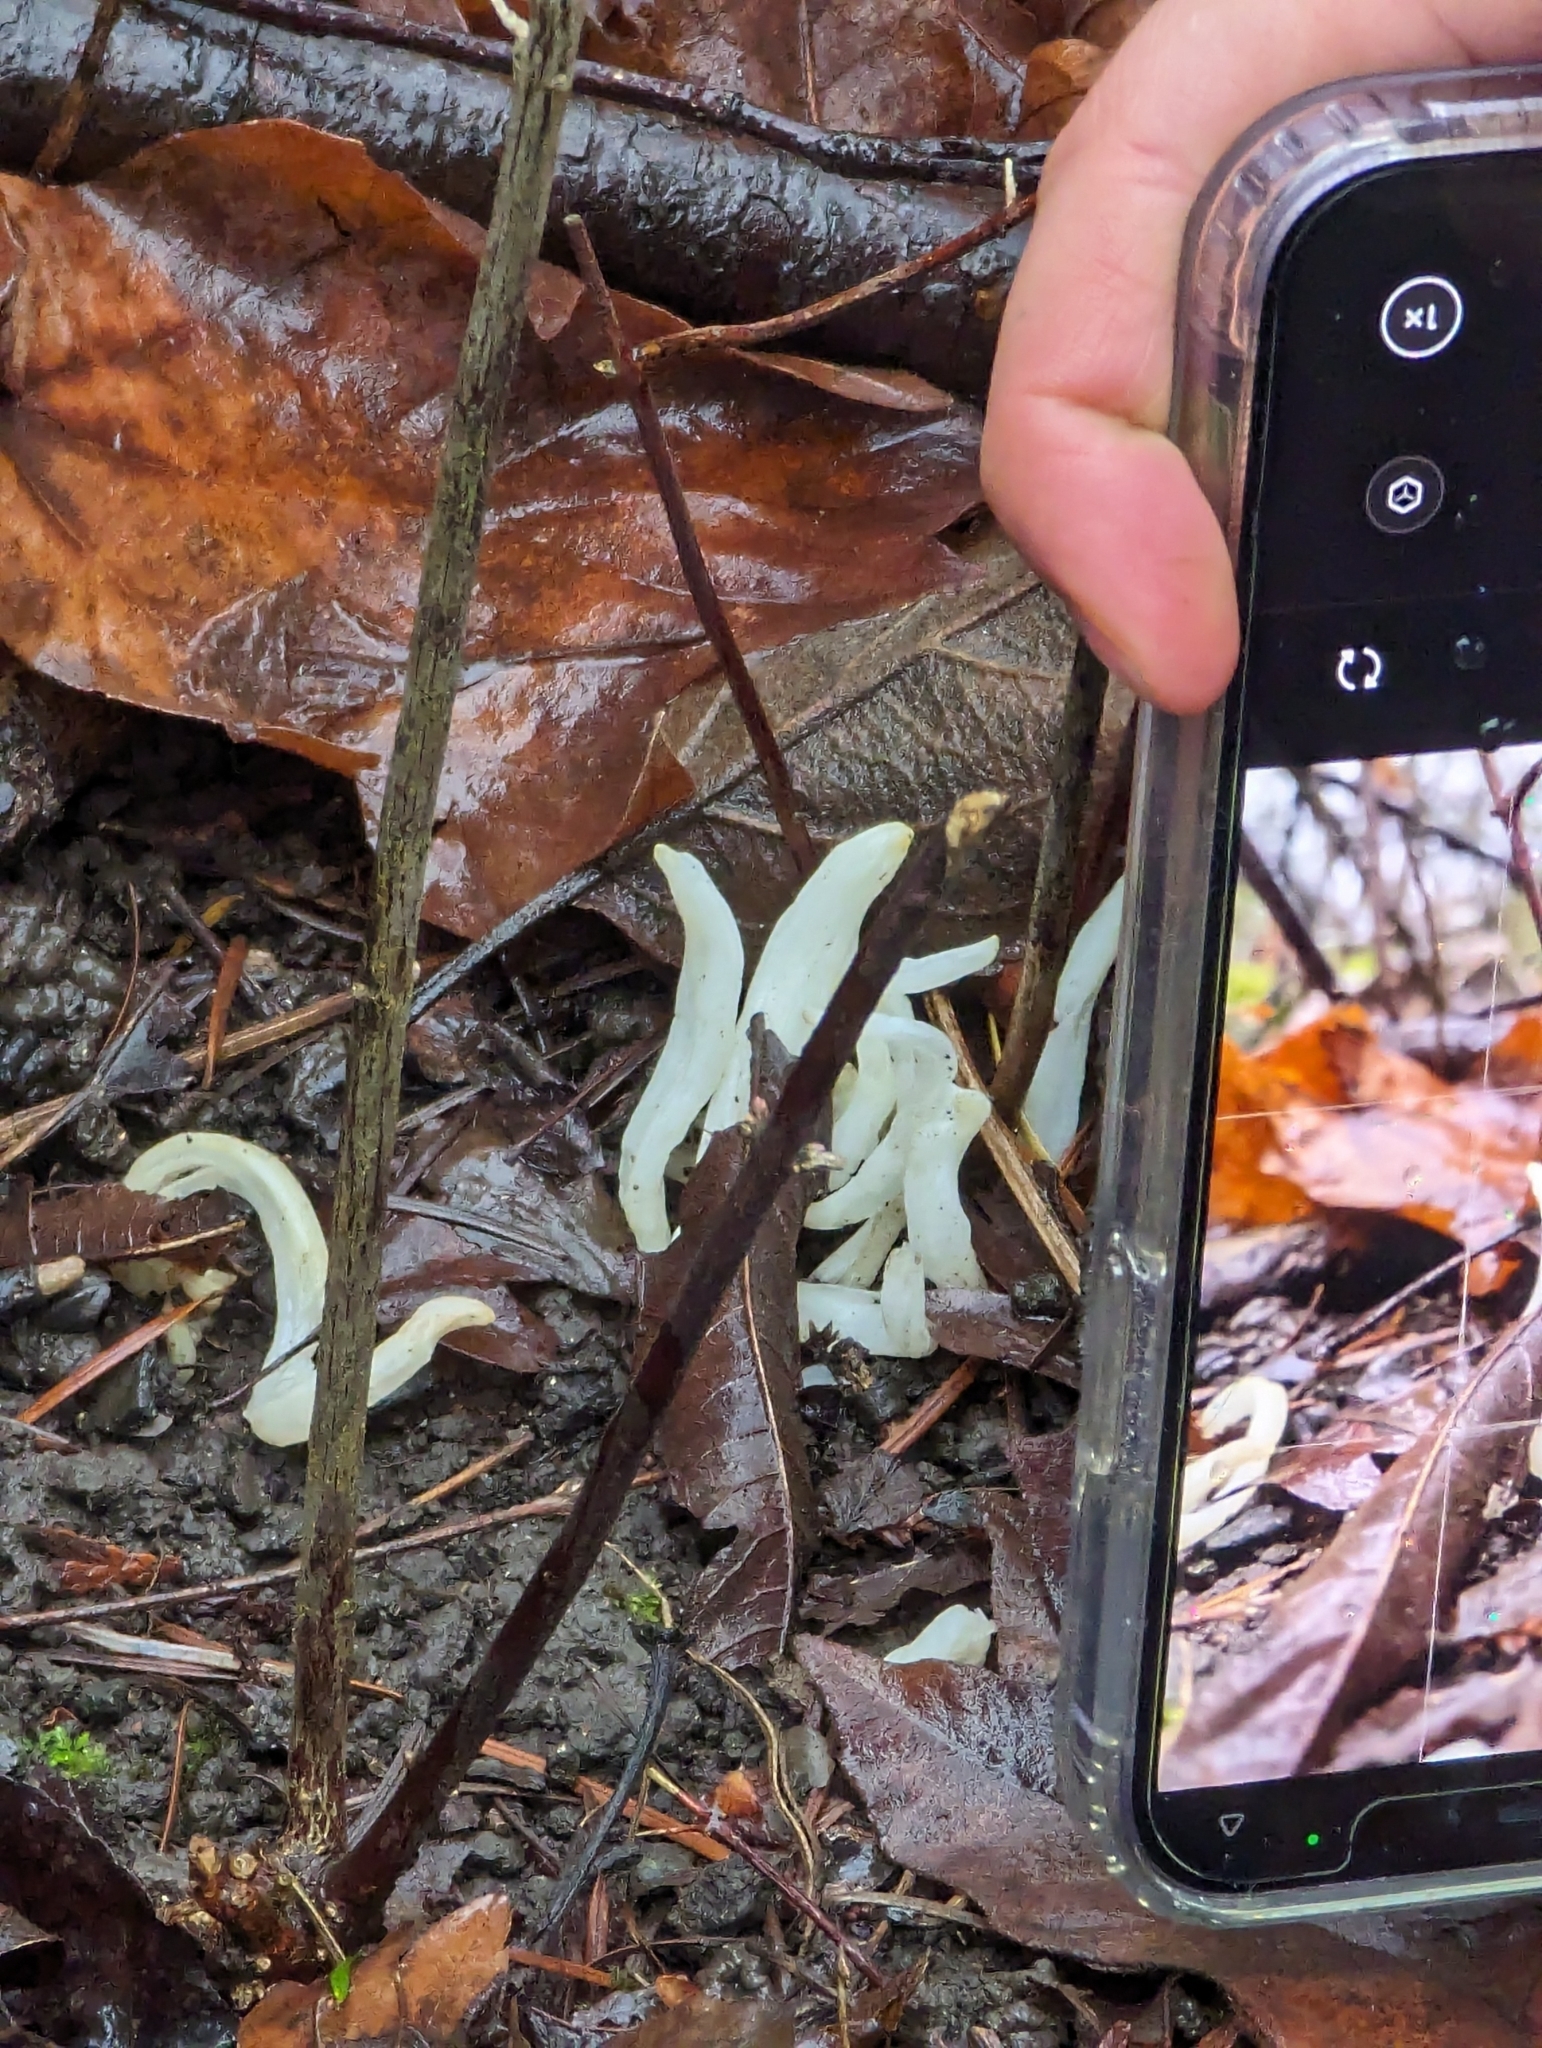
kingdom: Fungi
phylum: Basidiomycota
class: Agaricomycetes
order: Agaricales
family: Clavariaceae
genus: Clavaria
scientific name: Clavaria fragilis
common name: White spindles
